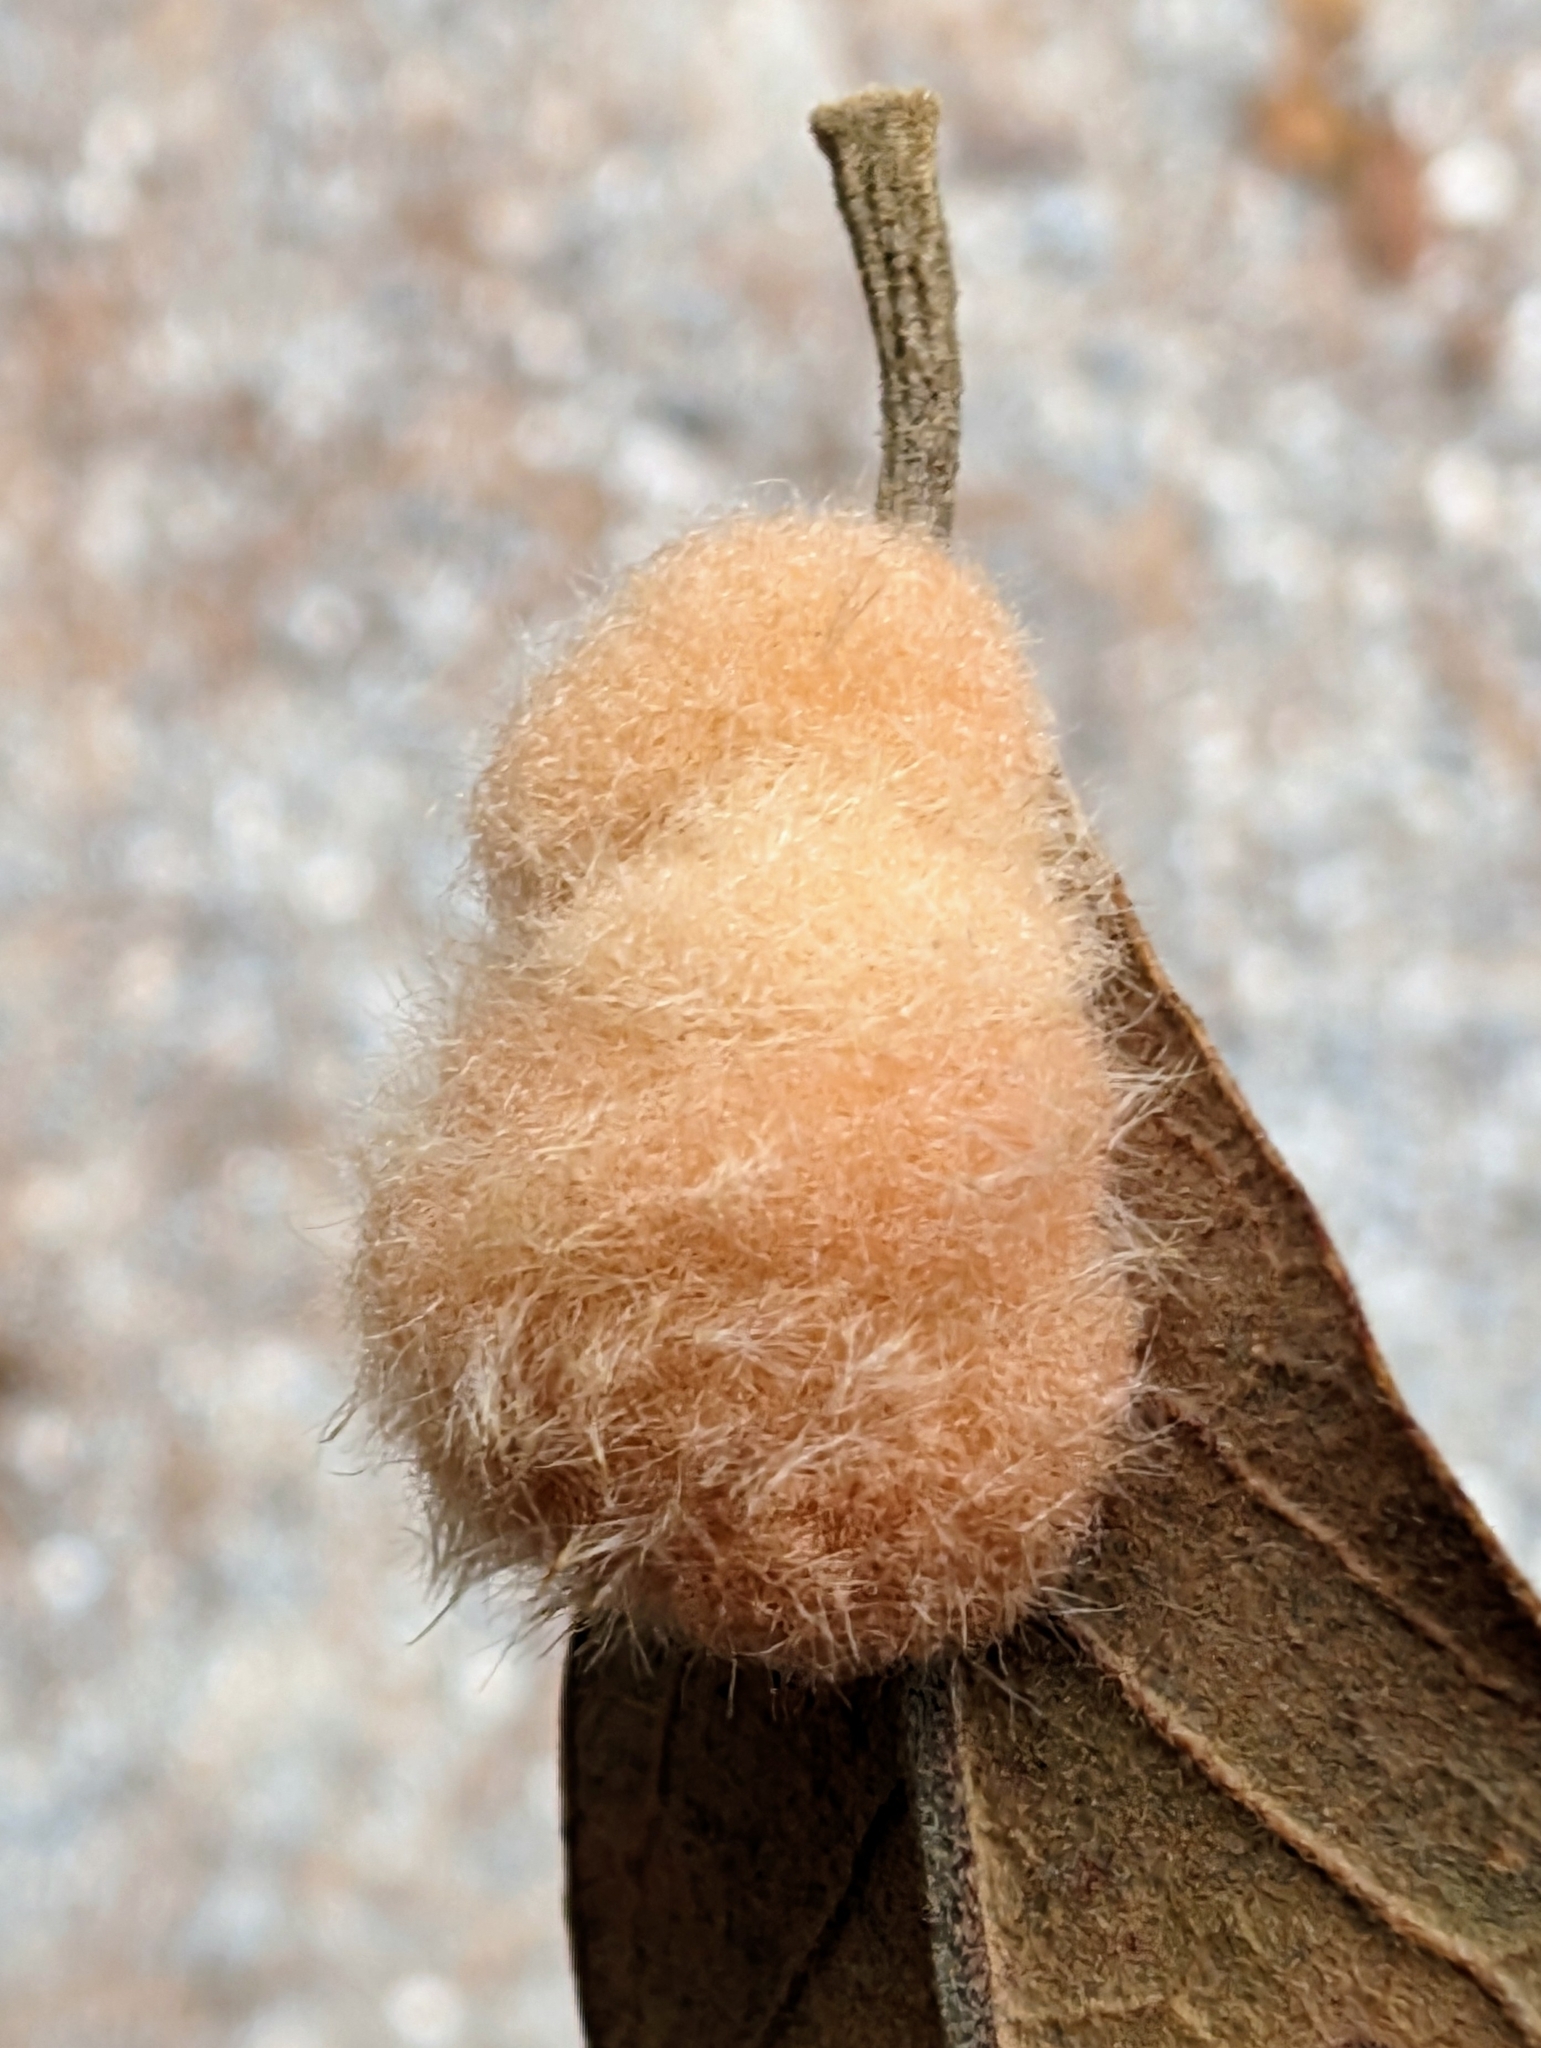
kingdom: Animalia
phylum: Arthropoda
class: Insecta
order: Hymenoptera
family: Cynipidae
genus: Andricus
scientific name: Andricus Druon pattoni
